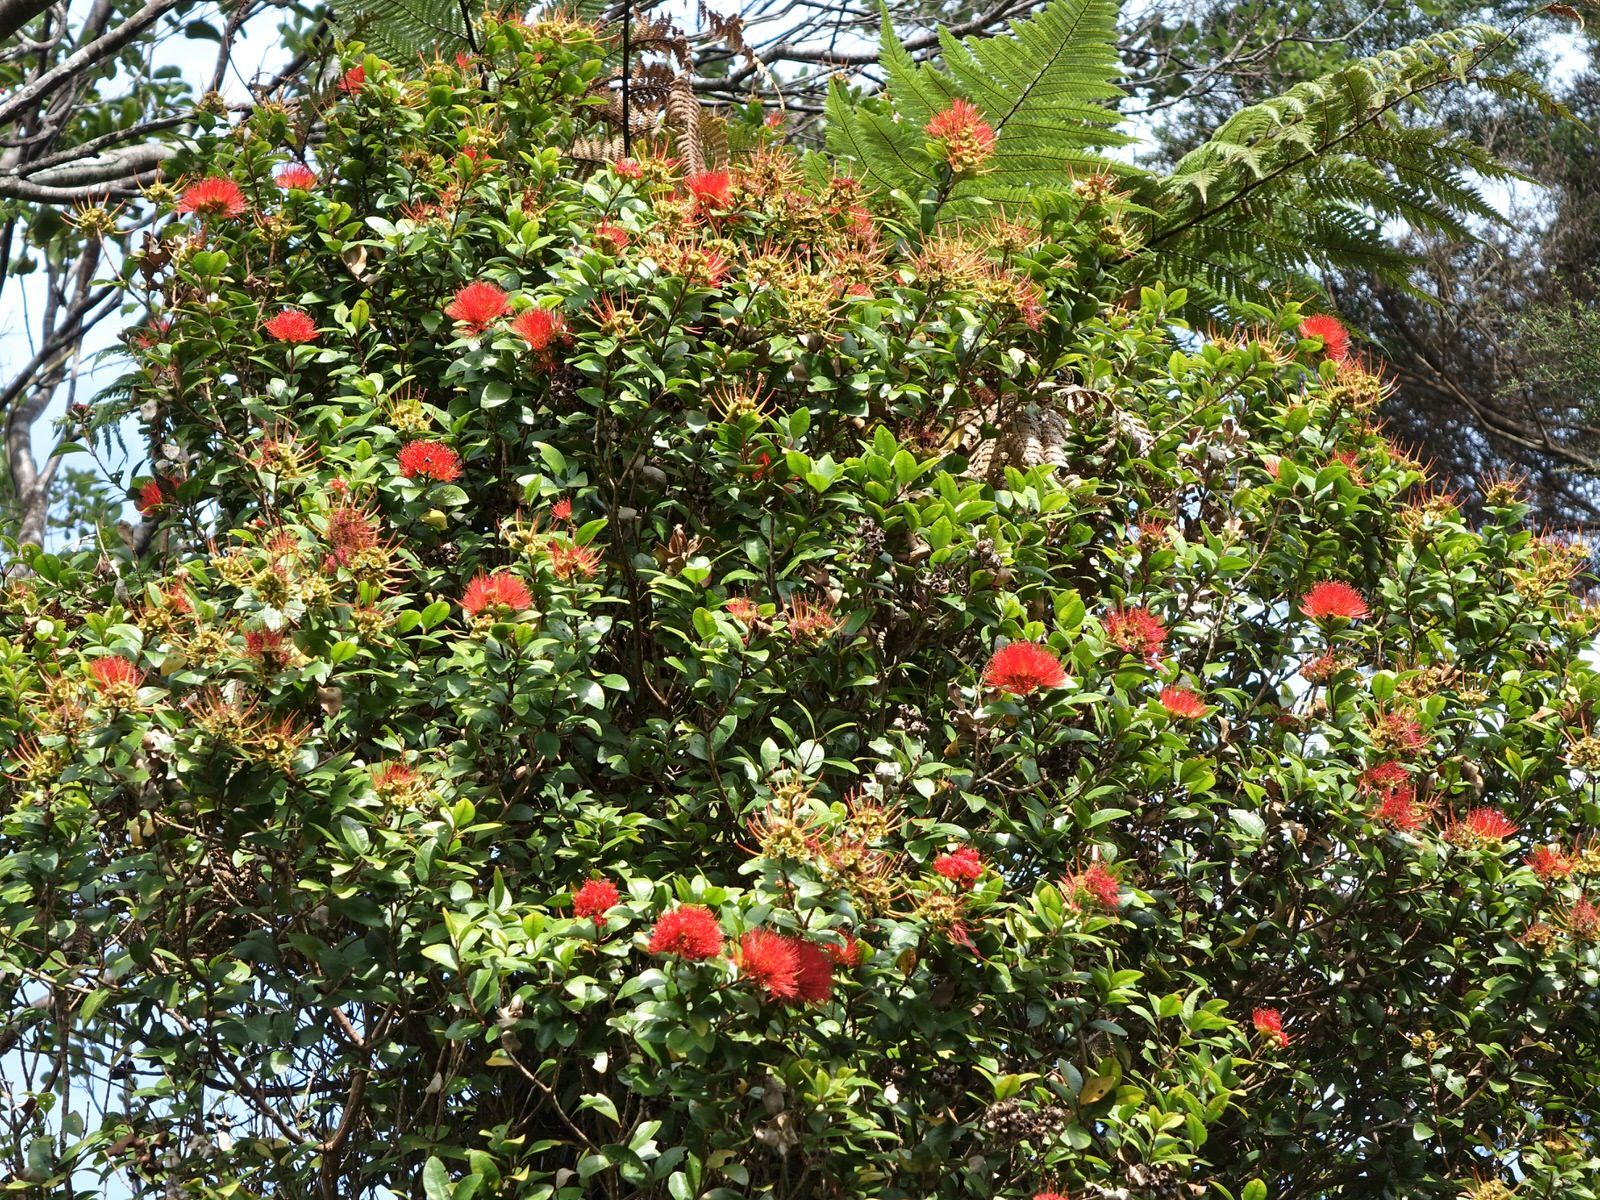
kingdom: Plantae
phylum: Tracheophyta
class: Magnoliopsida
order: Myrtales
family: Myrtaceae
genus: Metrosideros
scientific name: Metrosideros fulgens
